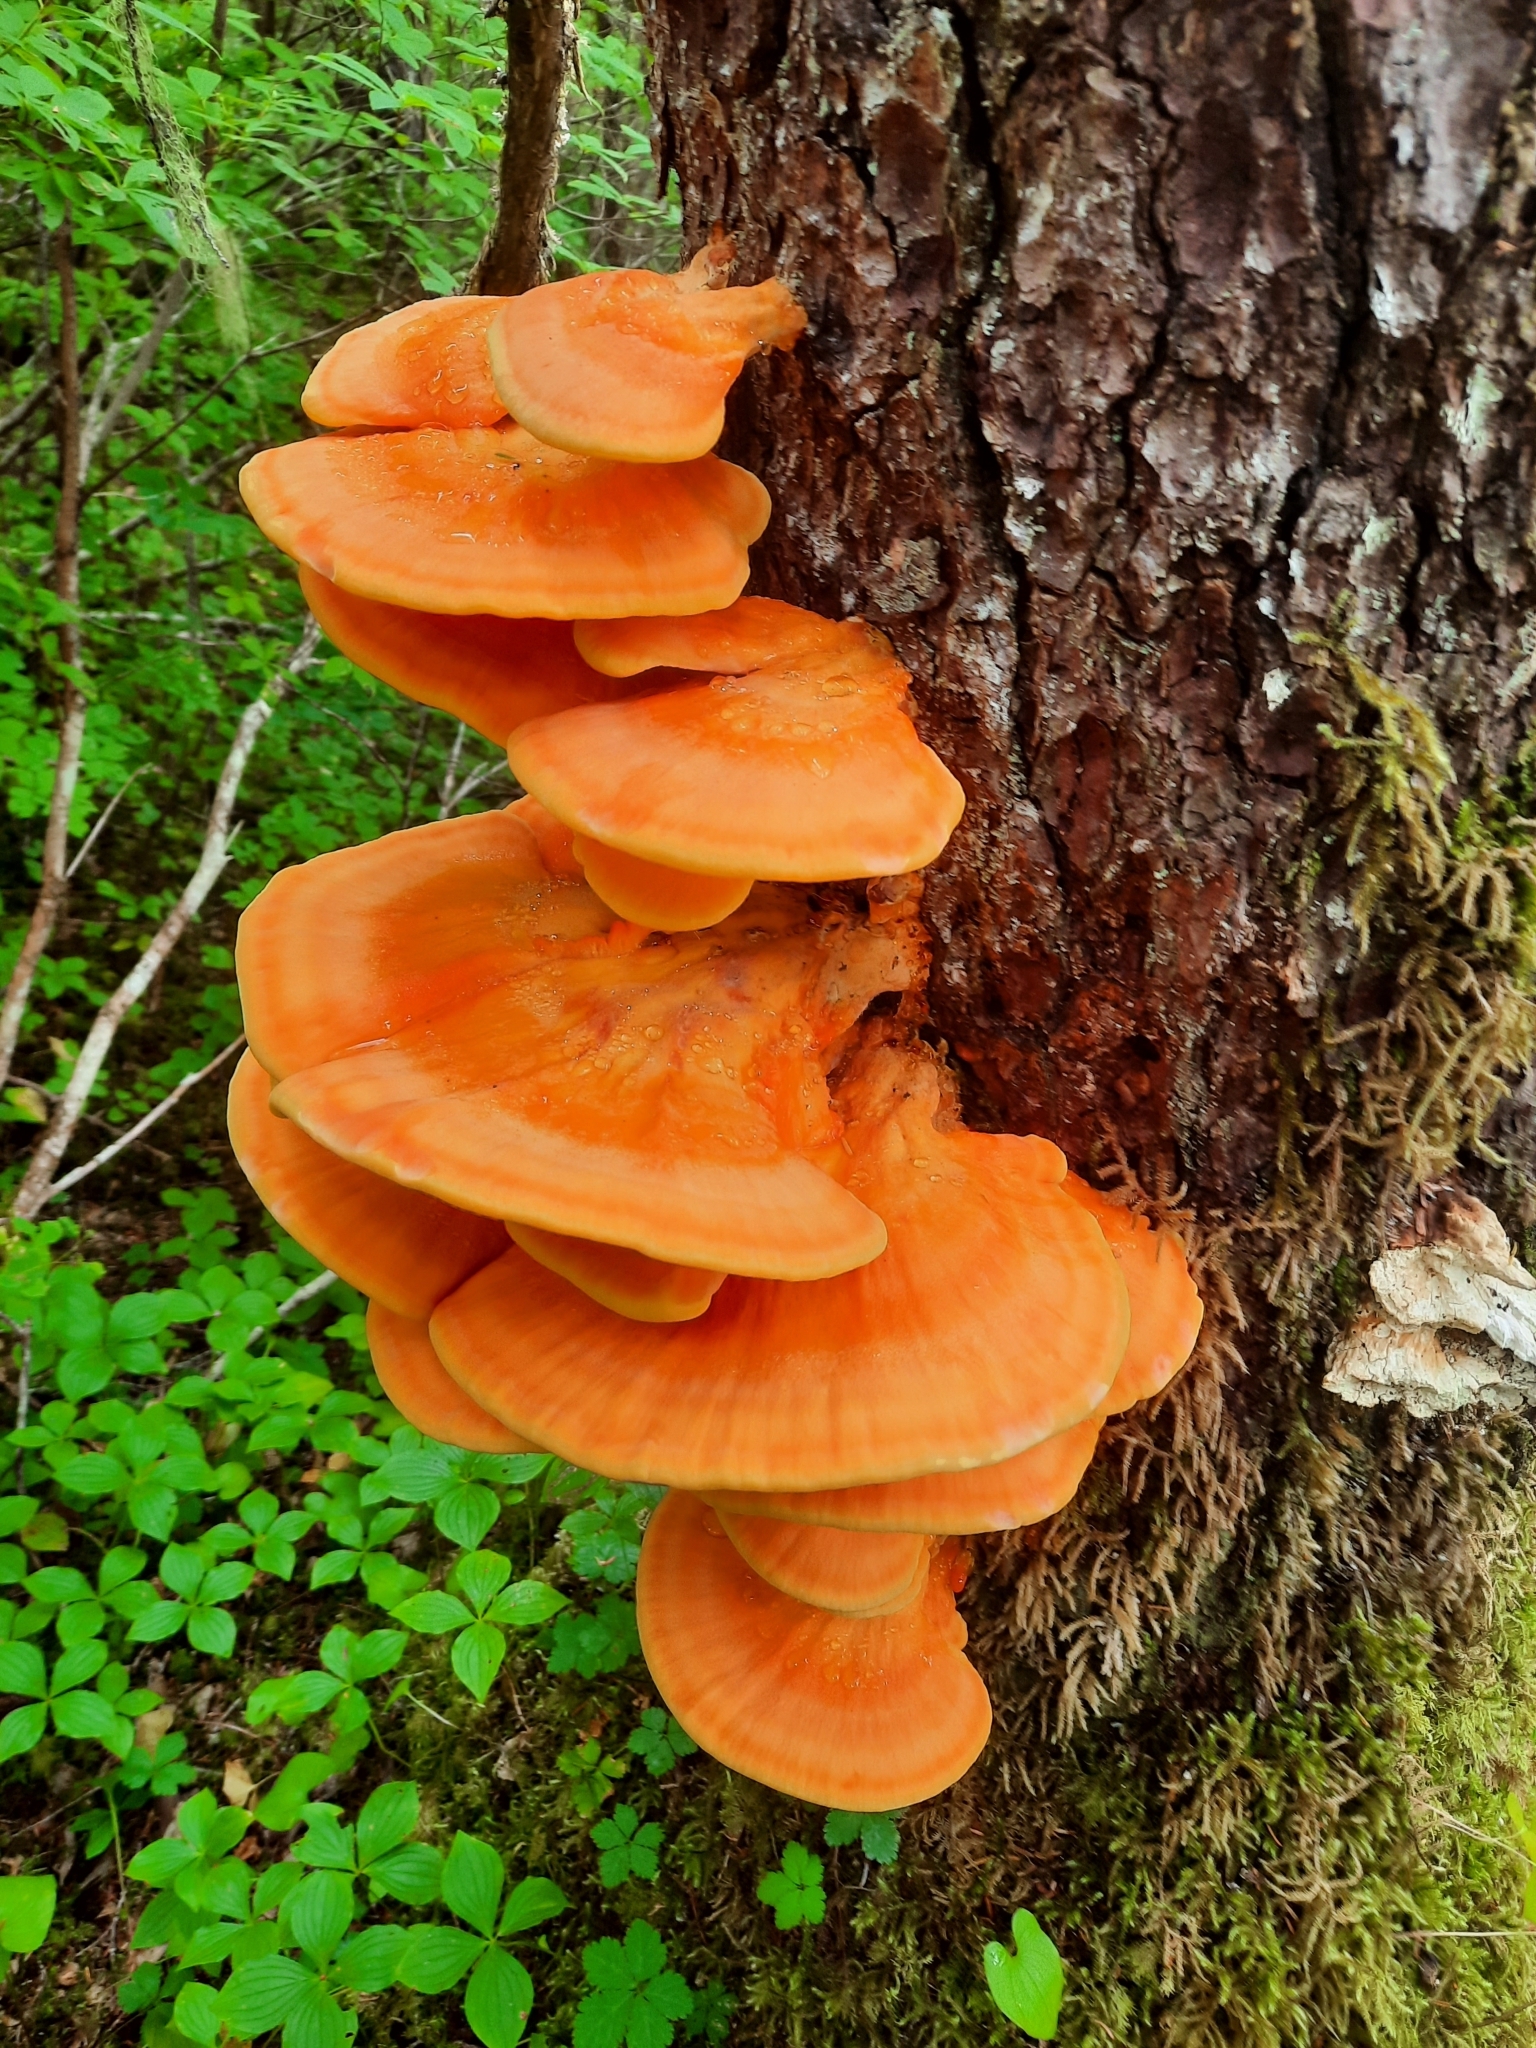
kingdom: Fungi
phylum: Basidiomycota
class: Agaricomycetes
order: Polyporales
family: Laetiporaceae
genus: Laetiporus
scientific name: Laetiporus conifericola
